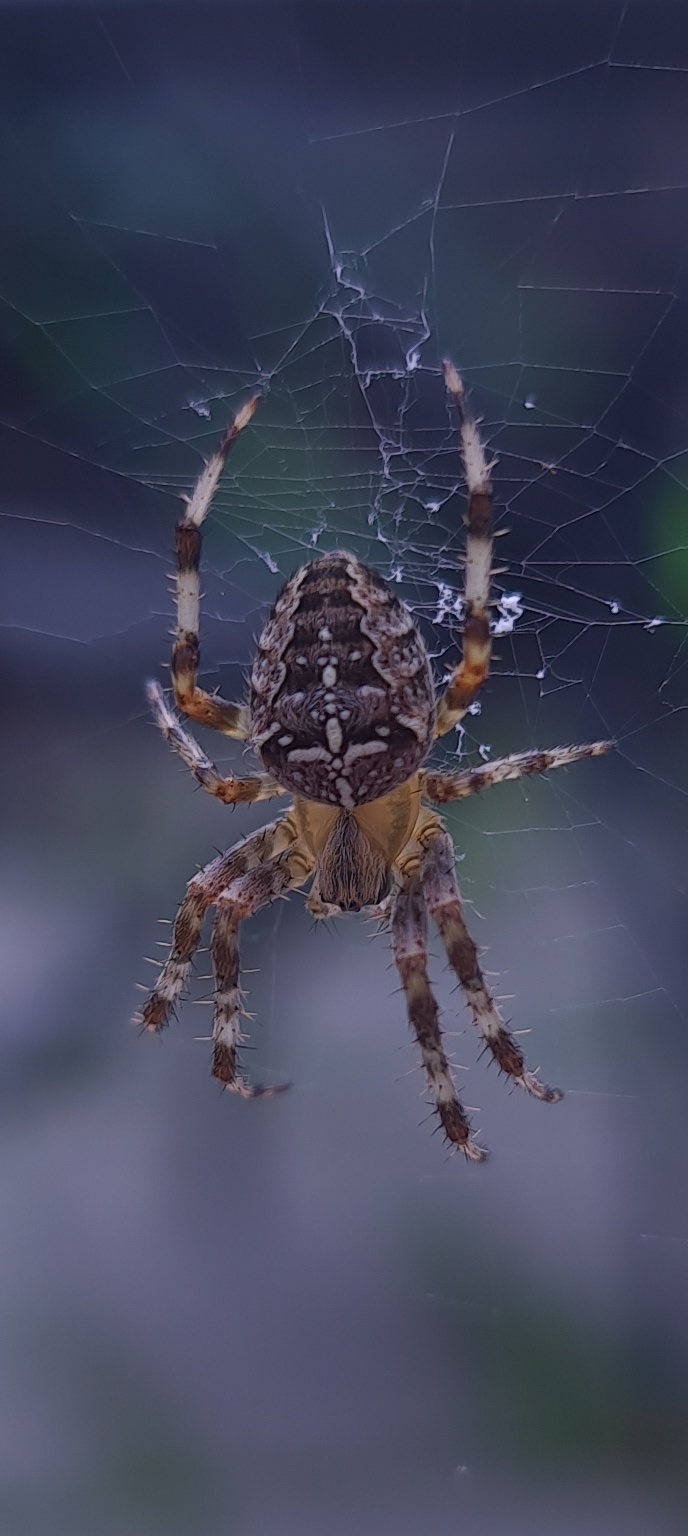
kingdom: Animalia
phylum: Arthropoda
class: Arachnida
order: Araneae
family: Araneidae
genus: Araneus
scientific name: Araneus diadematus
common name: Cross orbweaver
